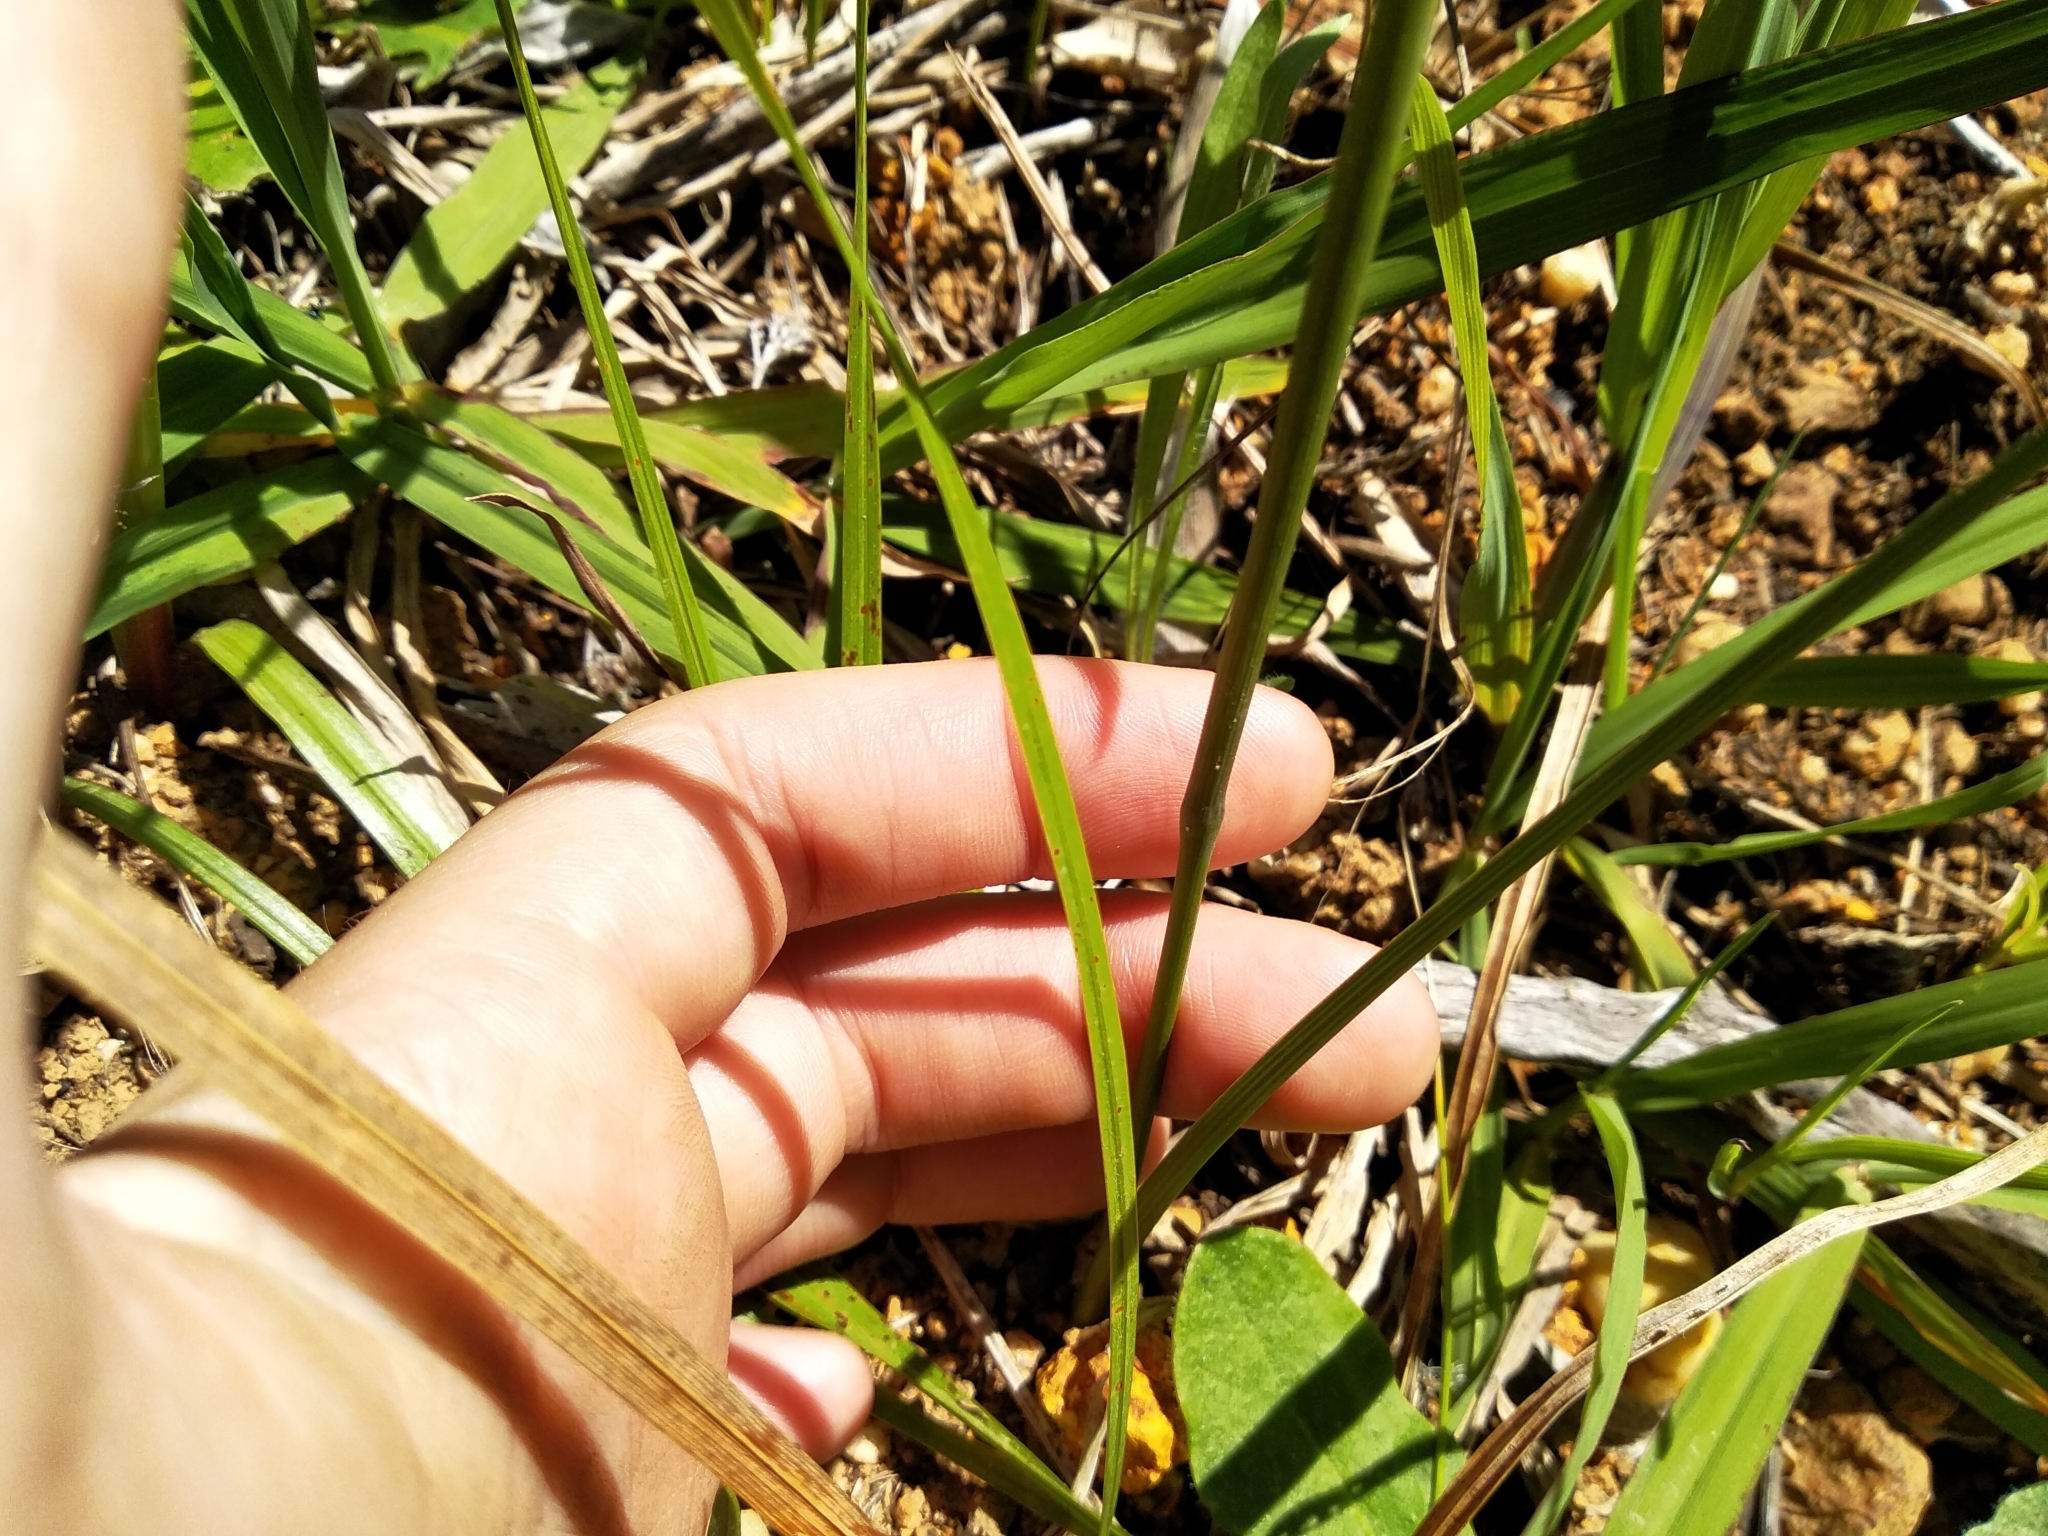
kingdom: Plantae
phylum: Tracheophyta
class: Liliopsida
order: Asparagales
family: Iridaceae
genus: Moraea
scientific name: Moraea tricuspidata
